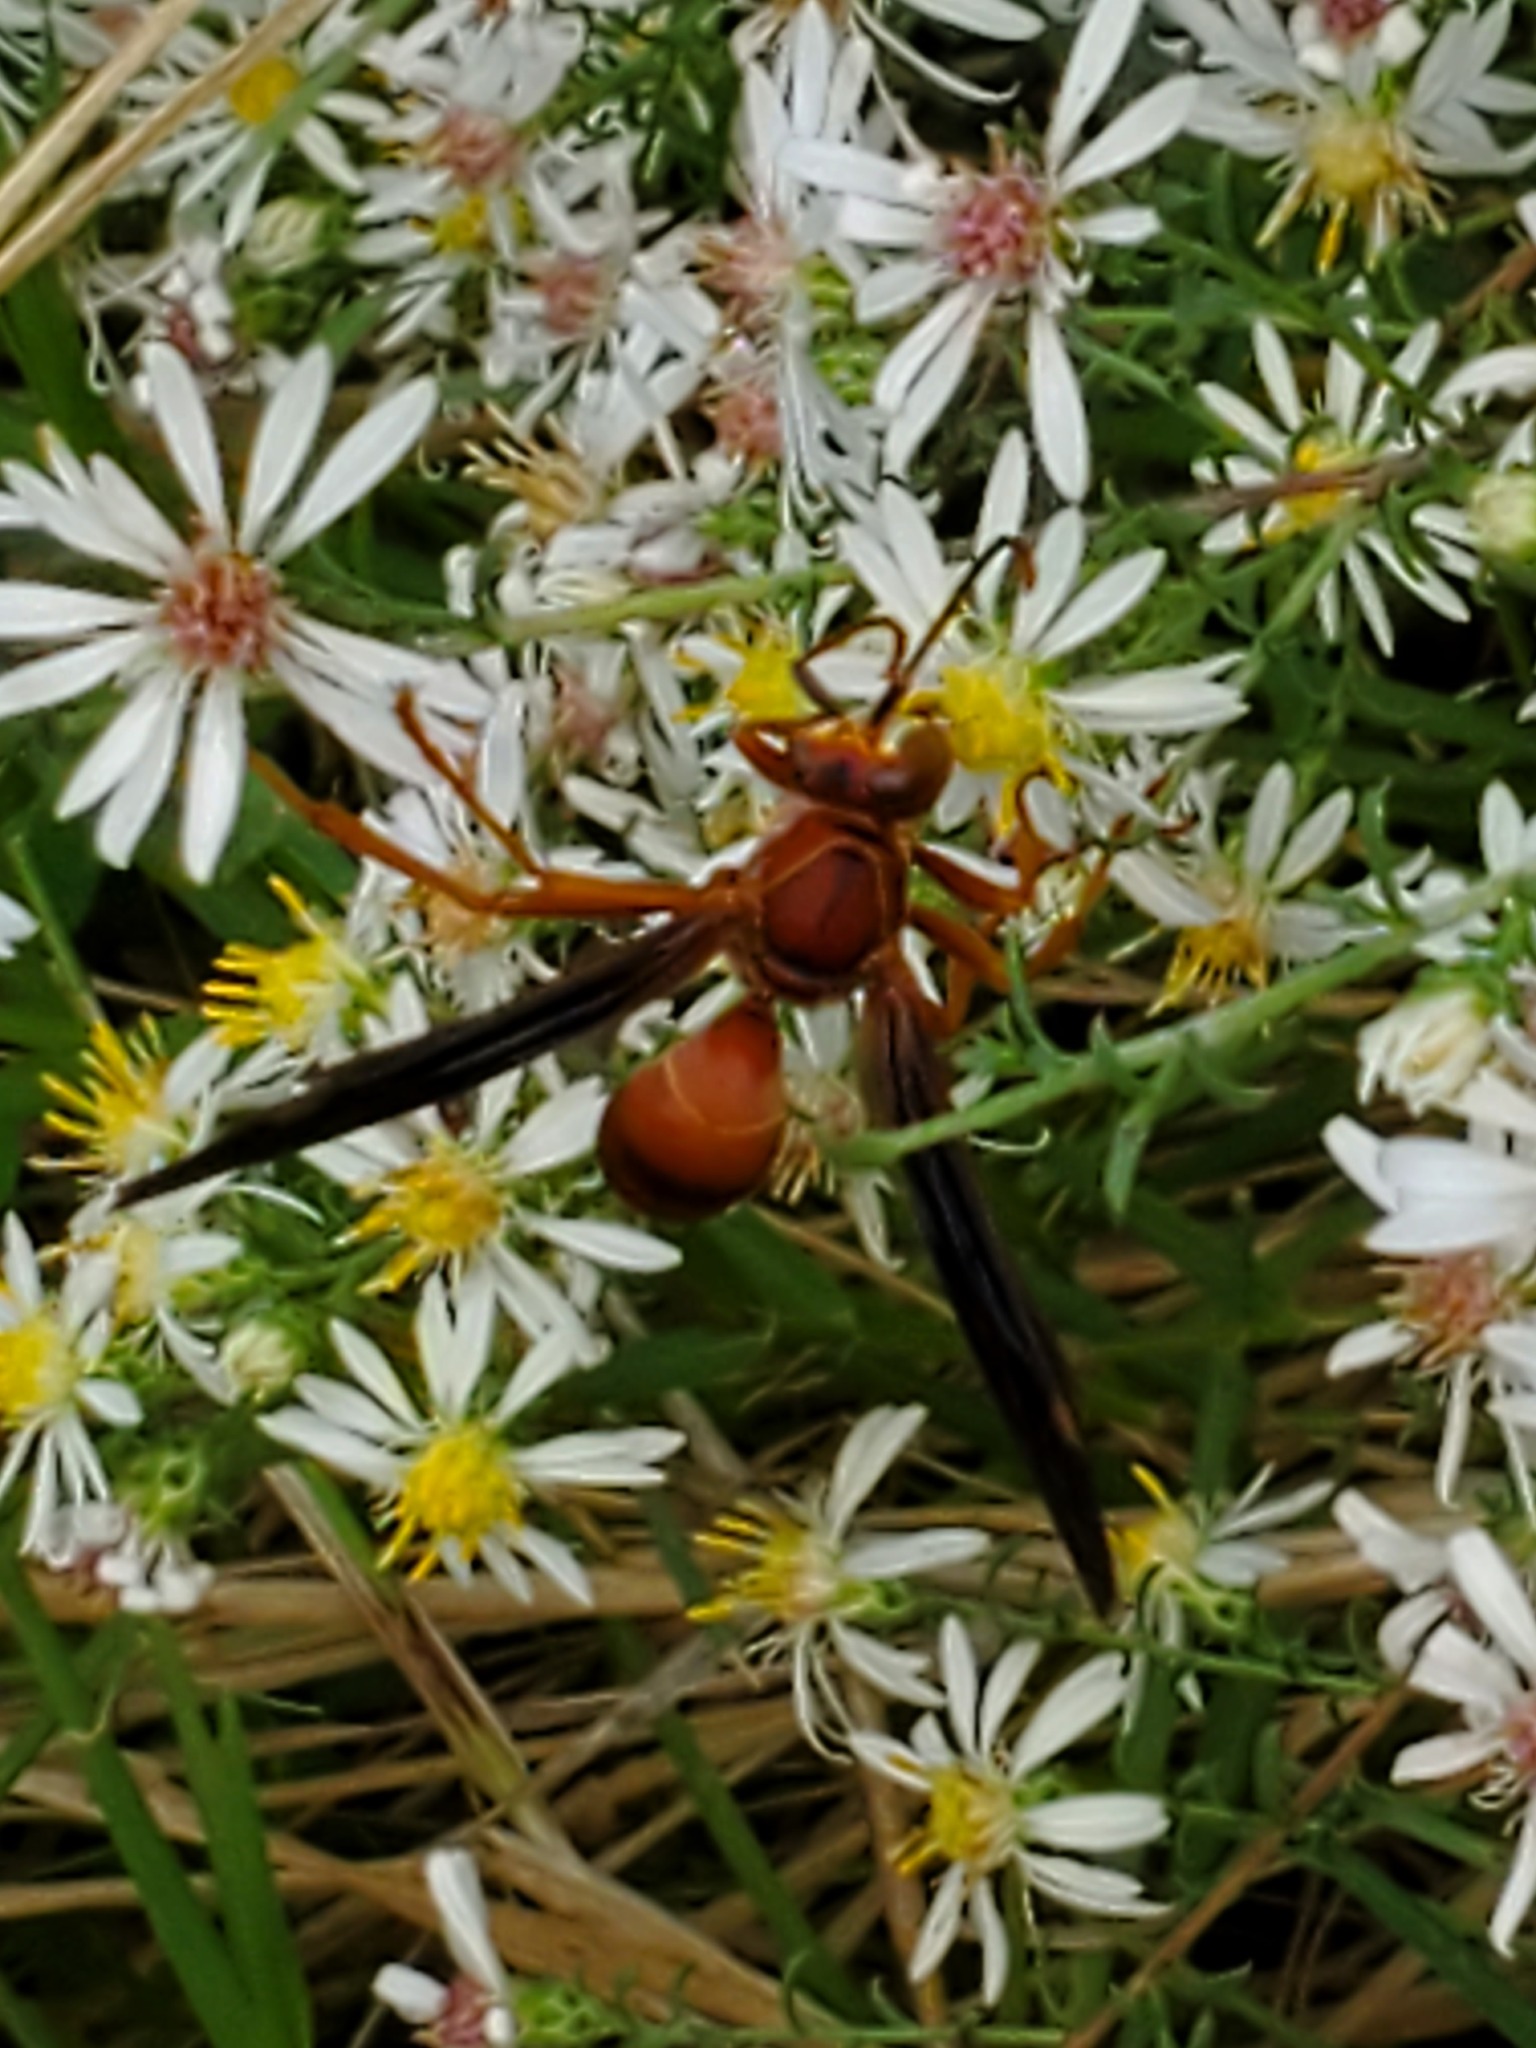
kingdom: Animalia
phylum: Arthropoda
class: Insecta
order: Hymenoptera
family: Eumenidae
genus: Polistes
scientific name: Polistes carolina
